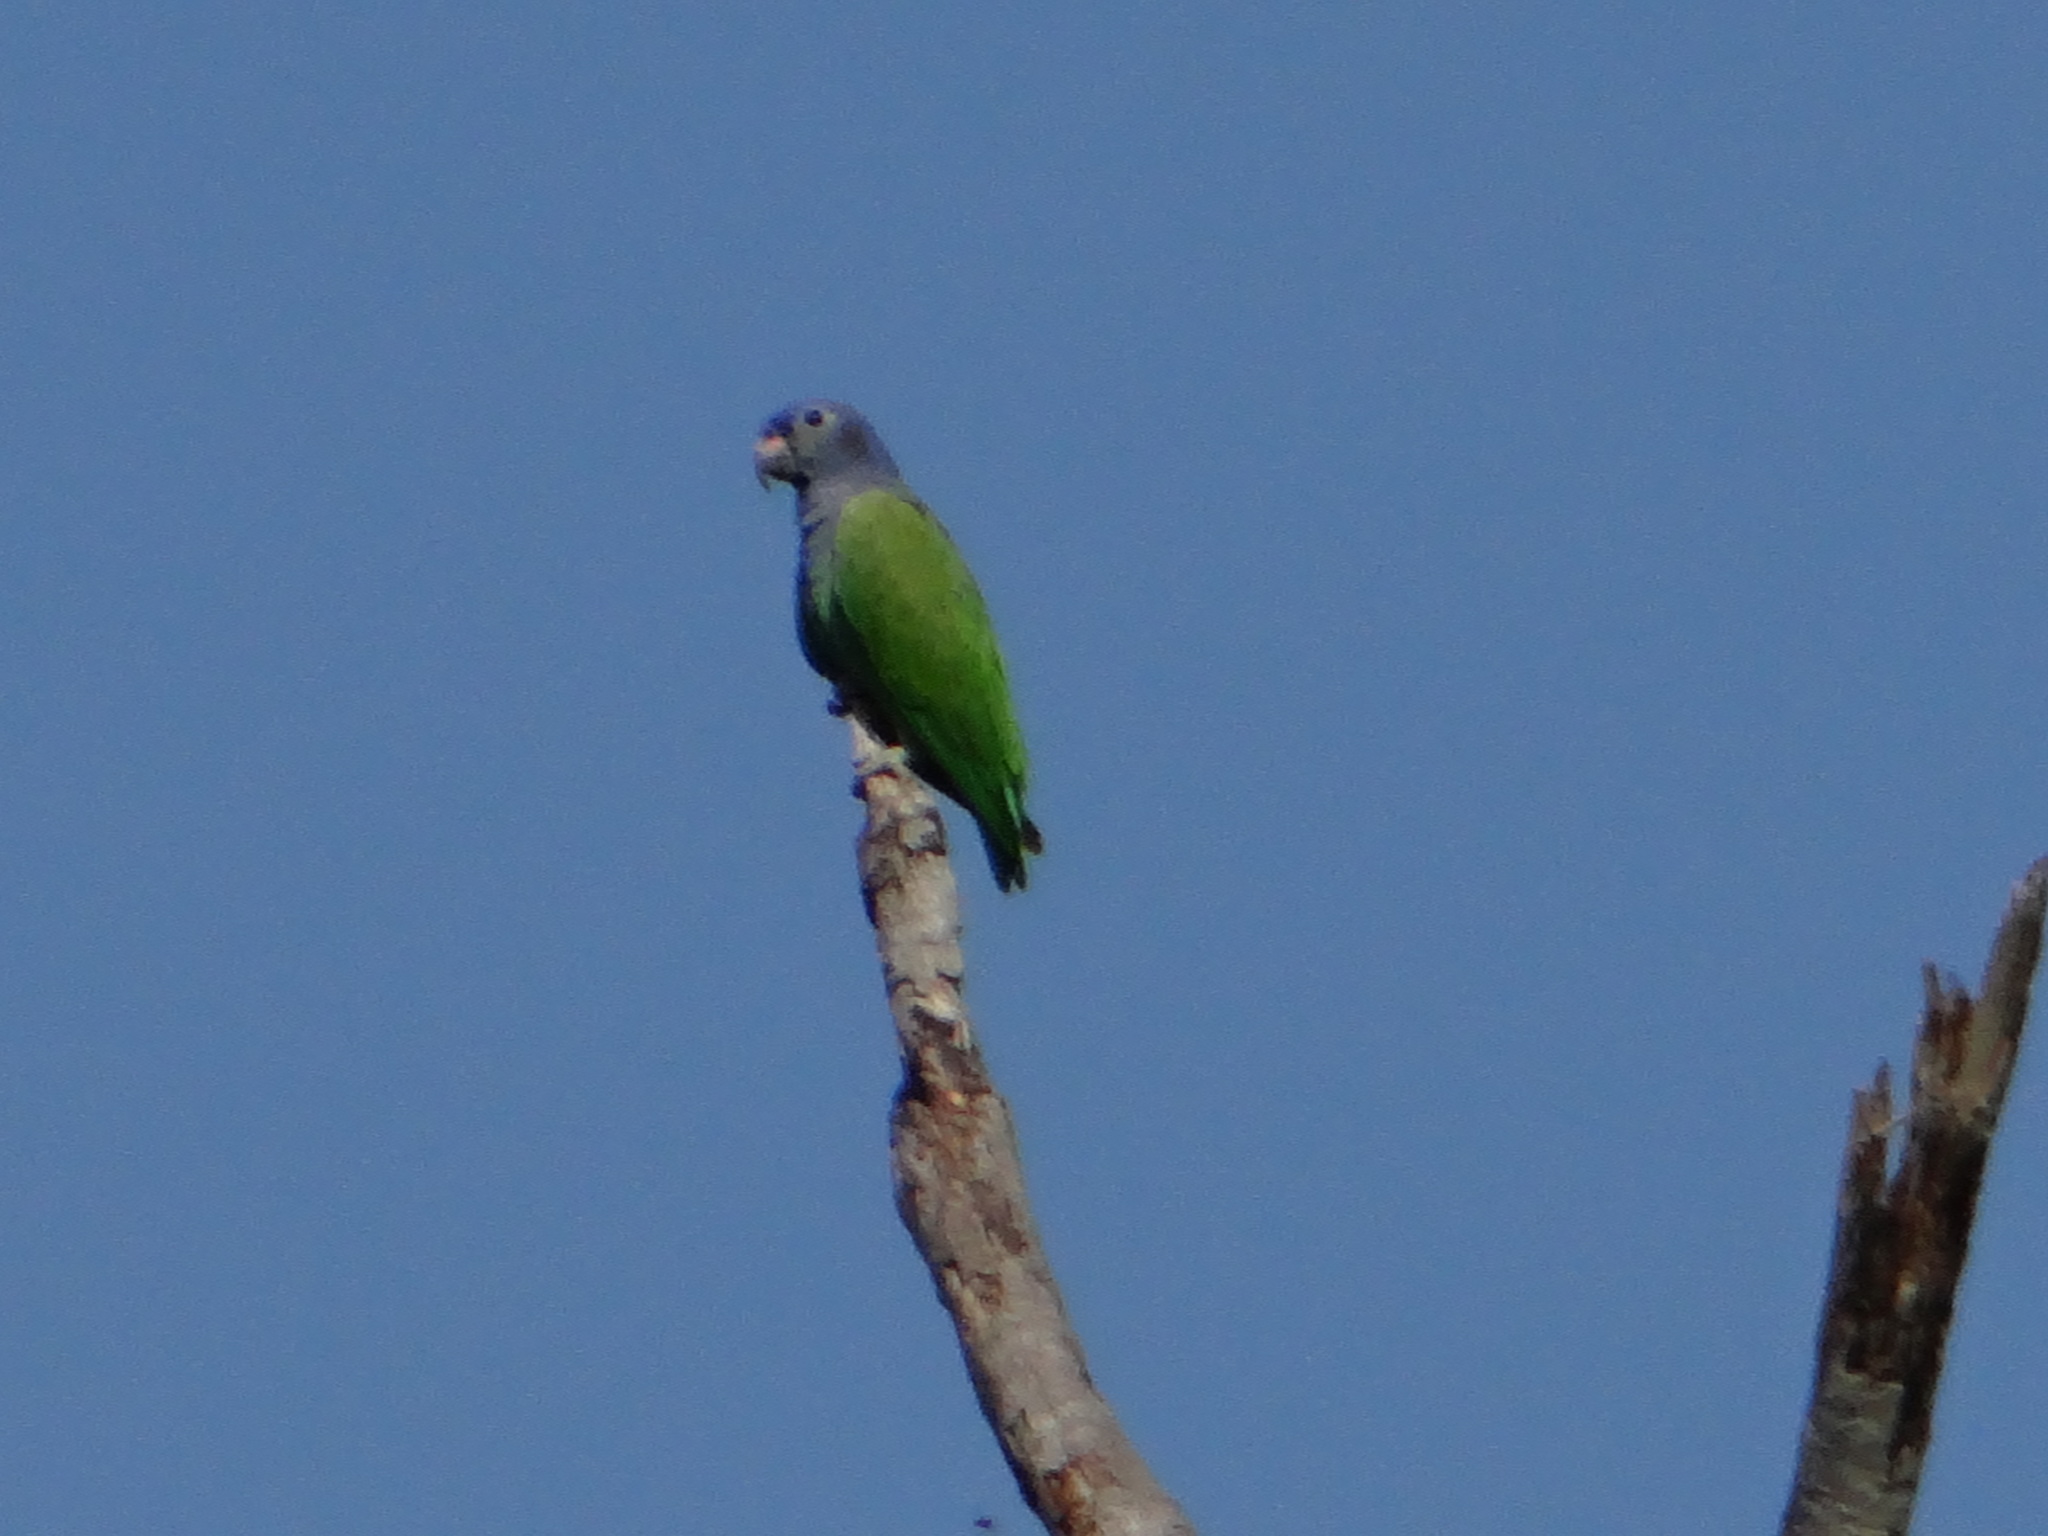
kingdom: Animalia
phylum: Chordata
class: Aves
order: Psittaciformes
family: Psittacidae
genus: Pionus
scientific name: Pionus menstruus
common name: Blue-headed parrot
